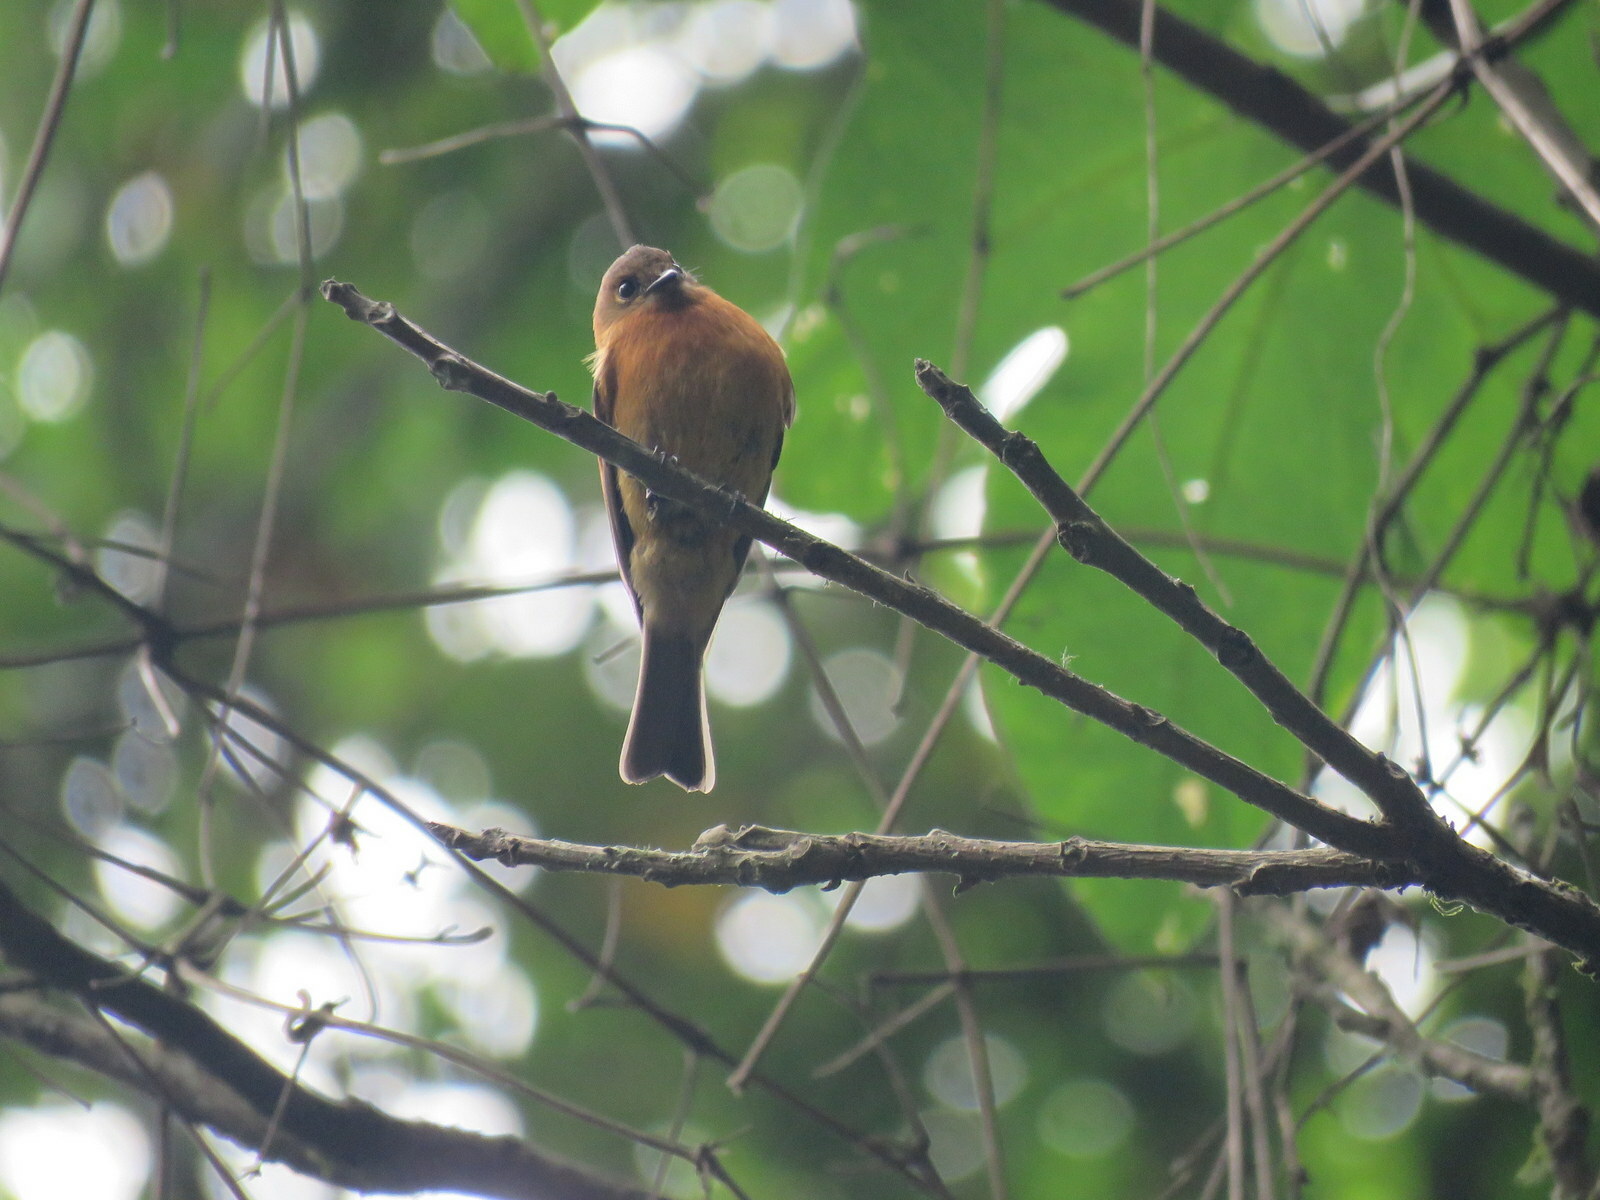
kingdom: Animalia
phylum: Chordata
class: Aves
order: Passeriformes
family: Tyrannidae
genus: Pyrrhomyias
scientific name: Pyrrhomyias cinnamomeus
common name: Cinnamon flycatcher
